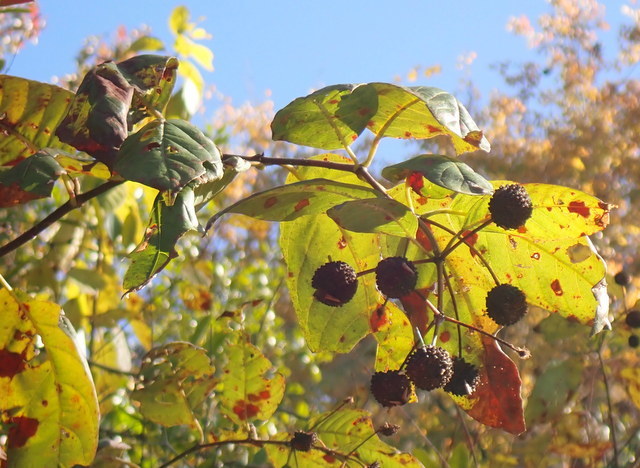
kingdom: Plantae
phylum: Tracheophyta
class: Magnoliopsida
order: Gentianales
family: Rubiaceae
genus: Cephalanthus
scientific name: Cephalanthus occidentalis
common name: Button-willow
